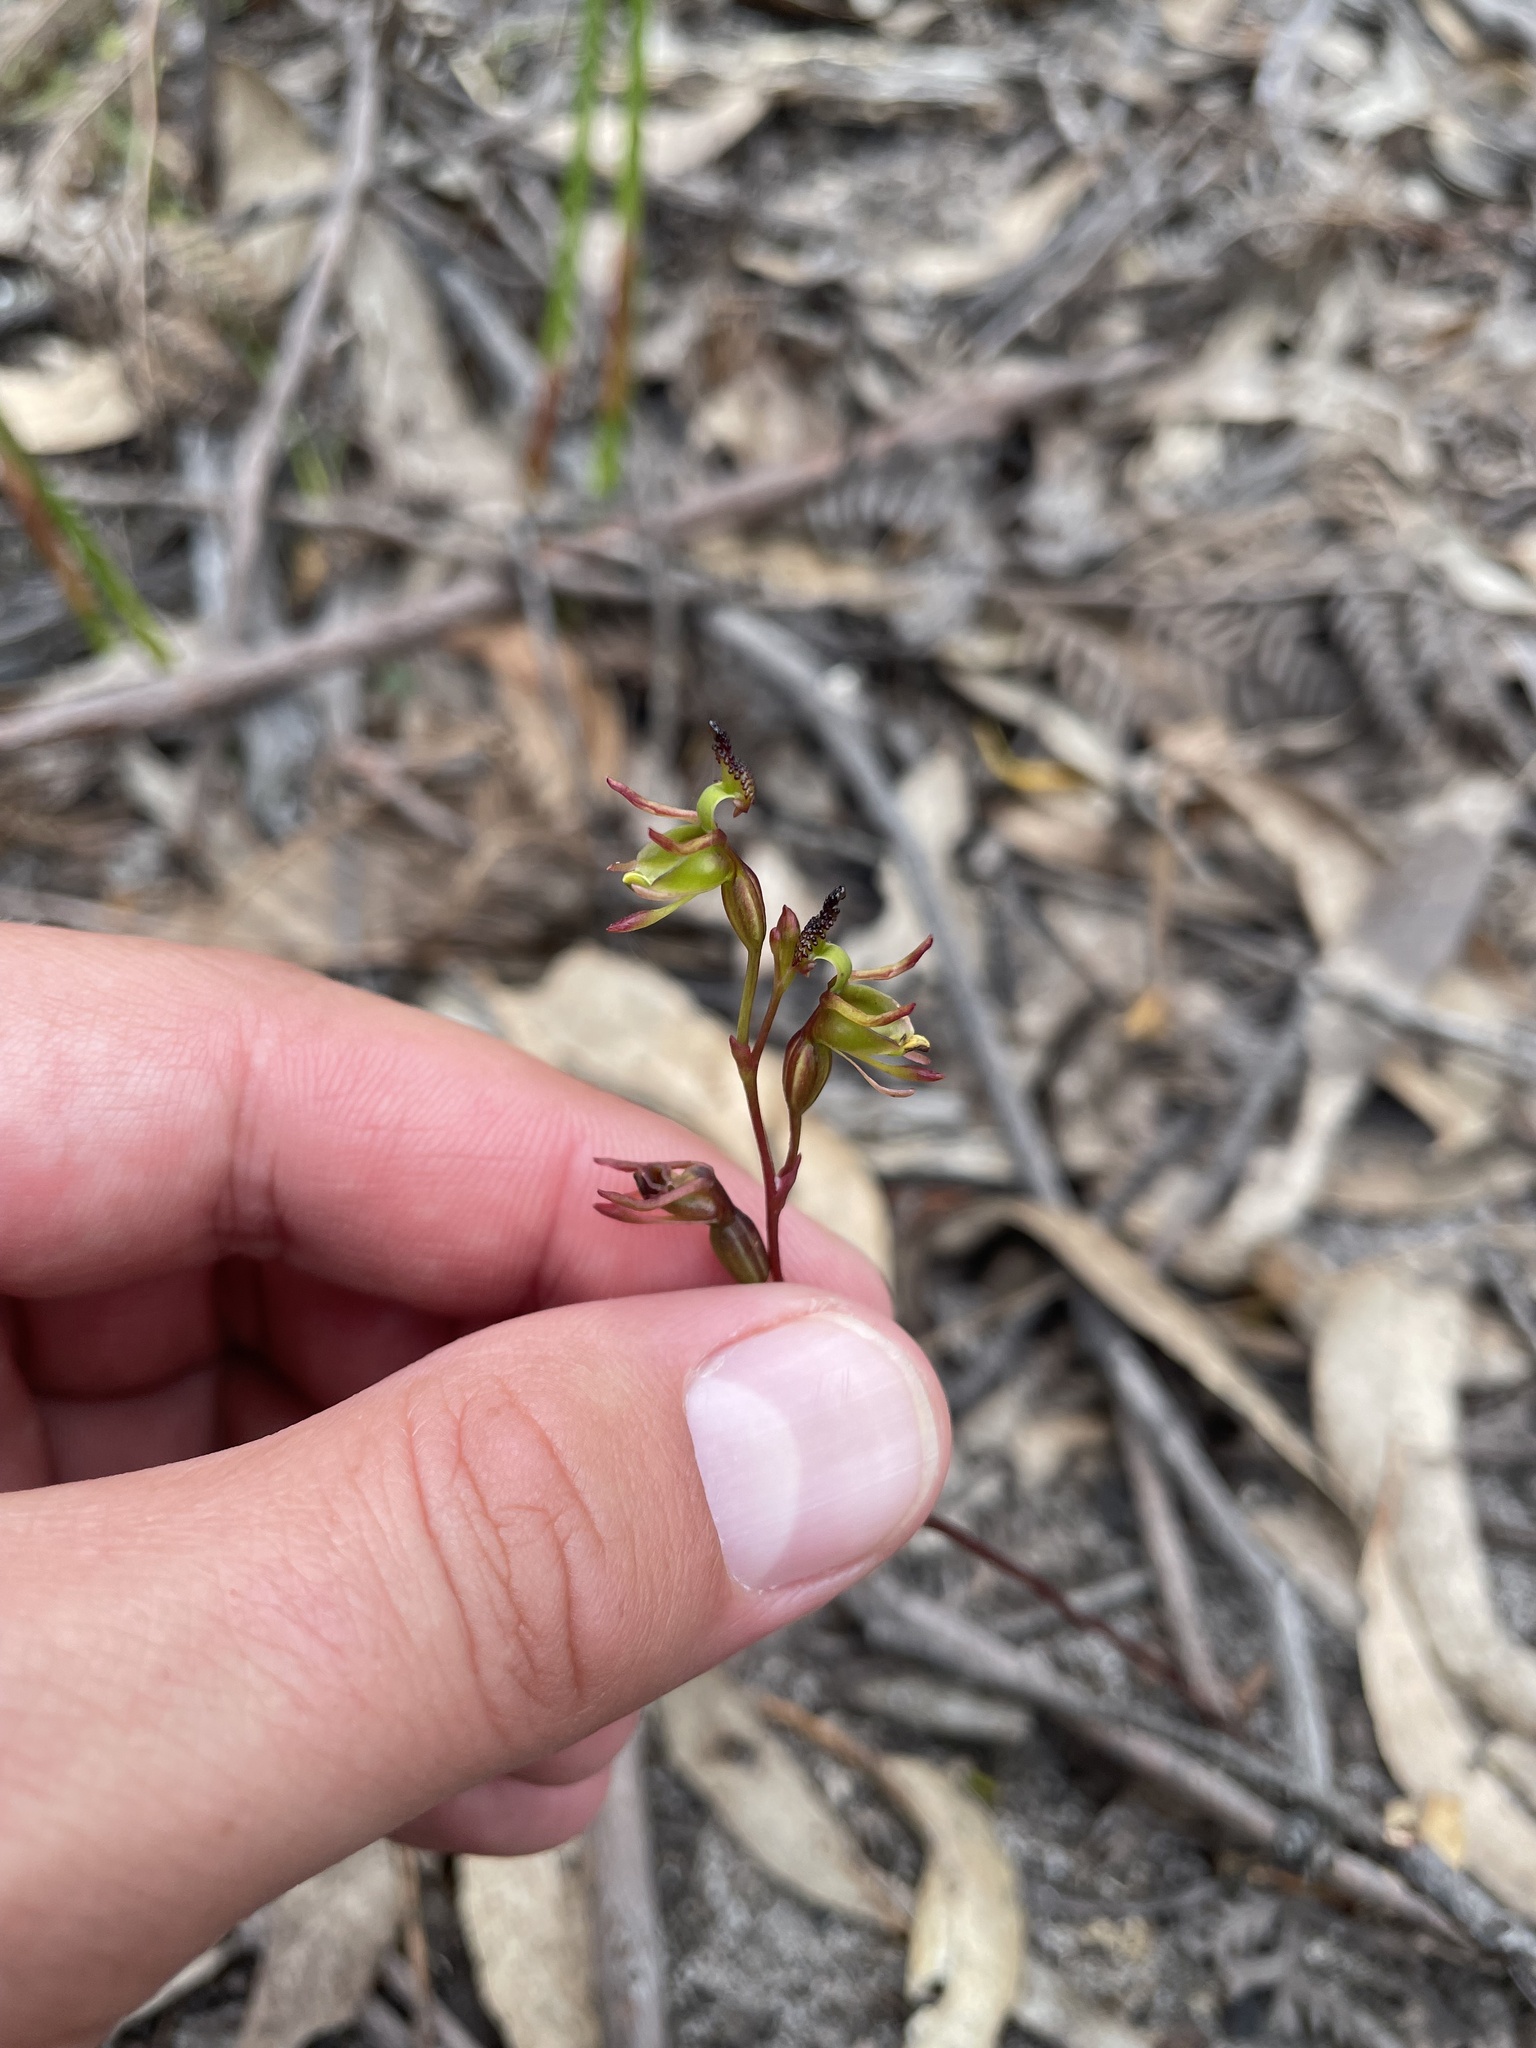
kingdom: Plantae
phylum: Tracheophyta
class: Liliopsida
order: Asparagales
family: Orchidaceae
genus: Caleana
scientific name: Caleana minor
